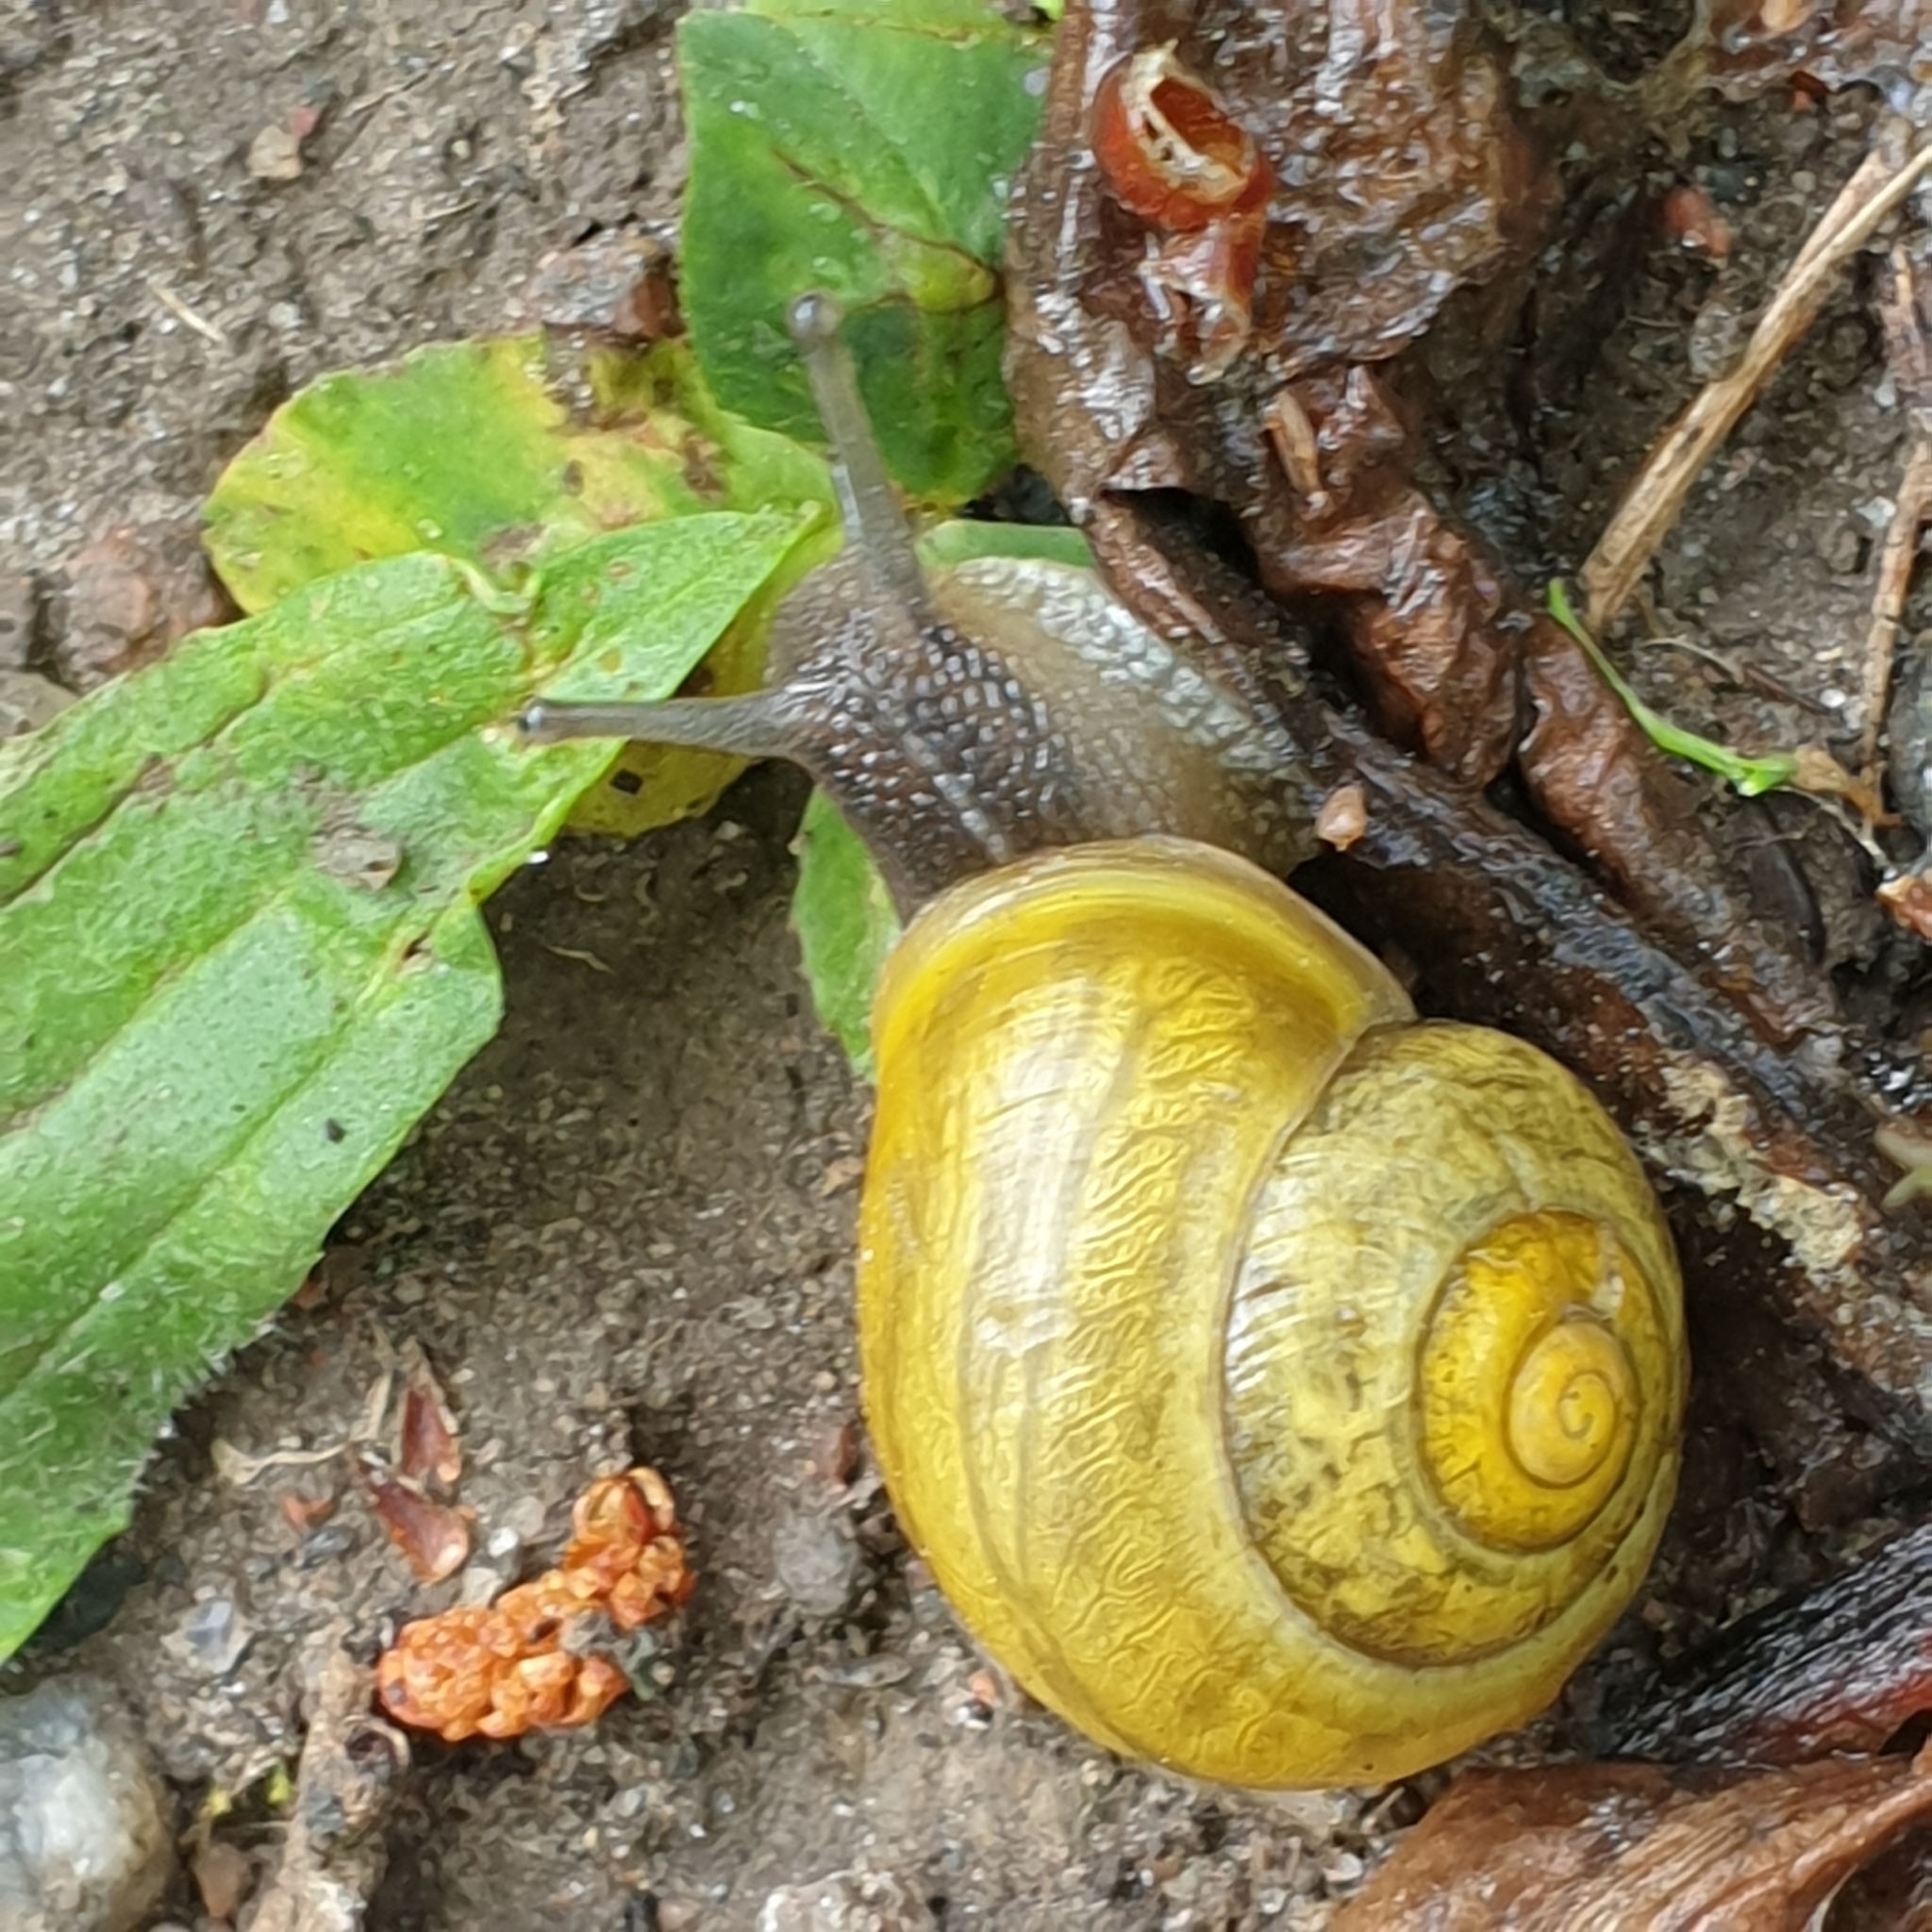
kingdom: Animalia
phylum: Mollusca
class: Gastropoda
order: Stylommatophora
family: Helicidae
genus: Cepaea
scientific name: Cepaea hortensis
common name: White-lip gardensnail
